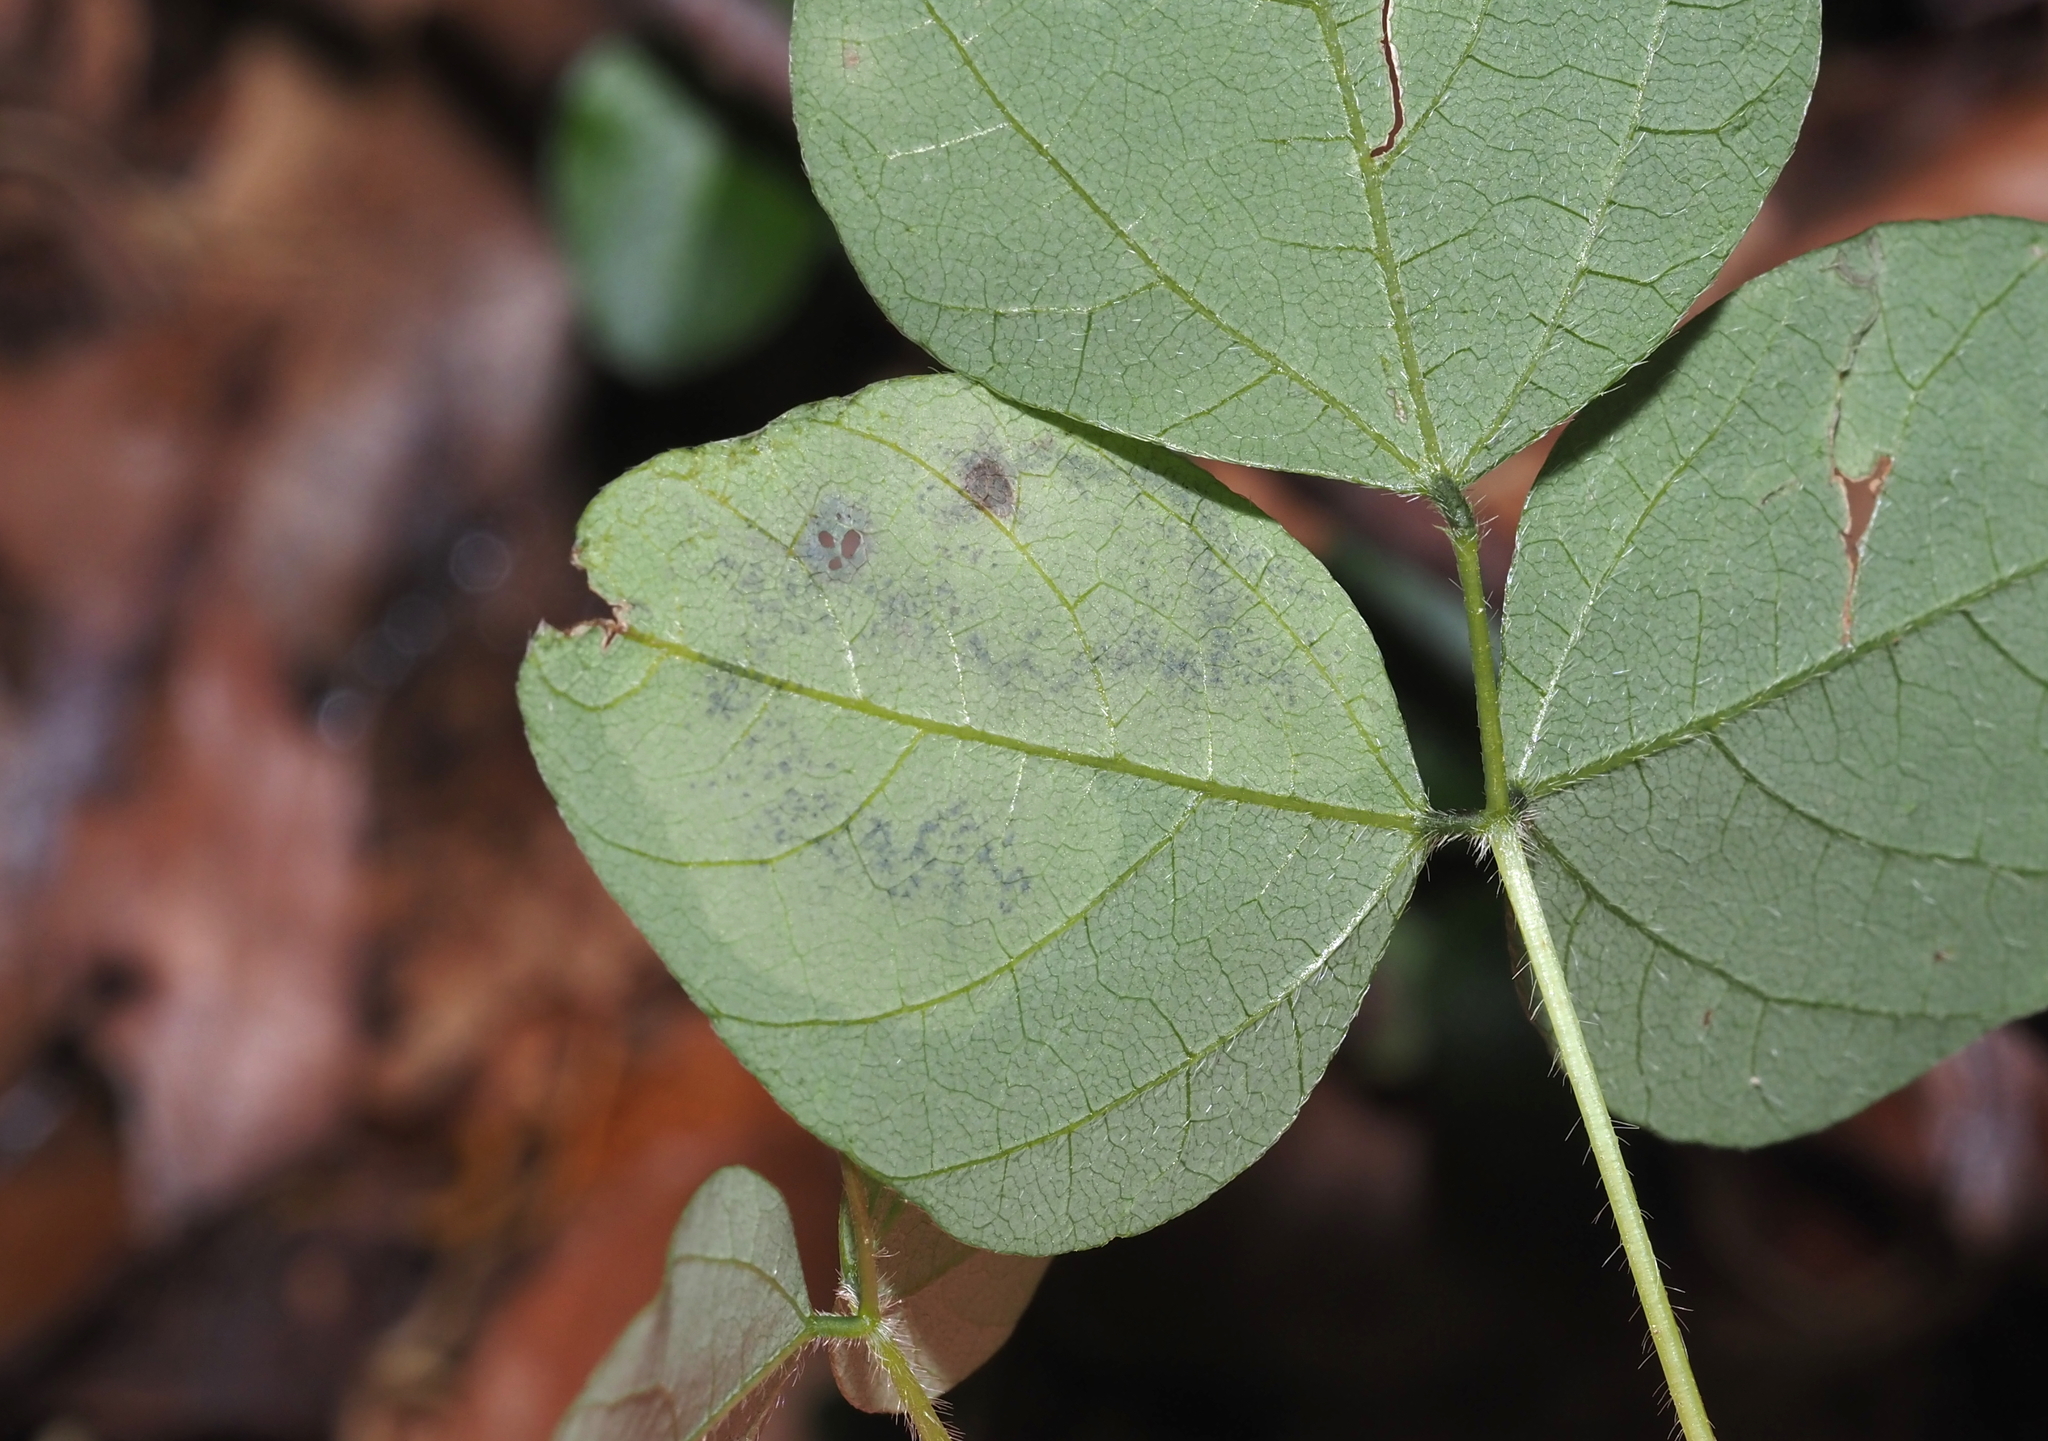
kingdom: Animalia
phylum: Arthropoda
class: Insecta
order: Lepidoptera
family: Gracillariidae
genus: Leucanthiza
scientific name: Leucanthiza amphicarpeaefoliella
